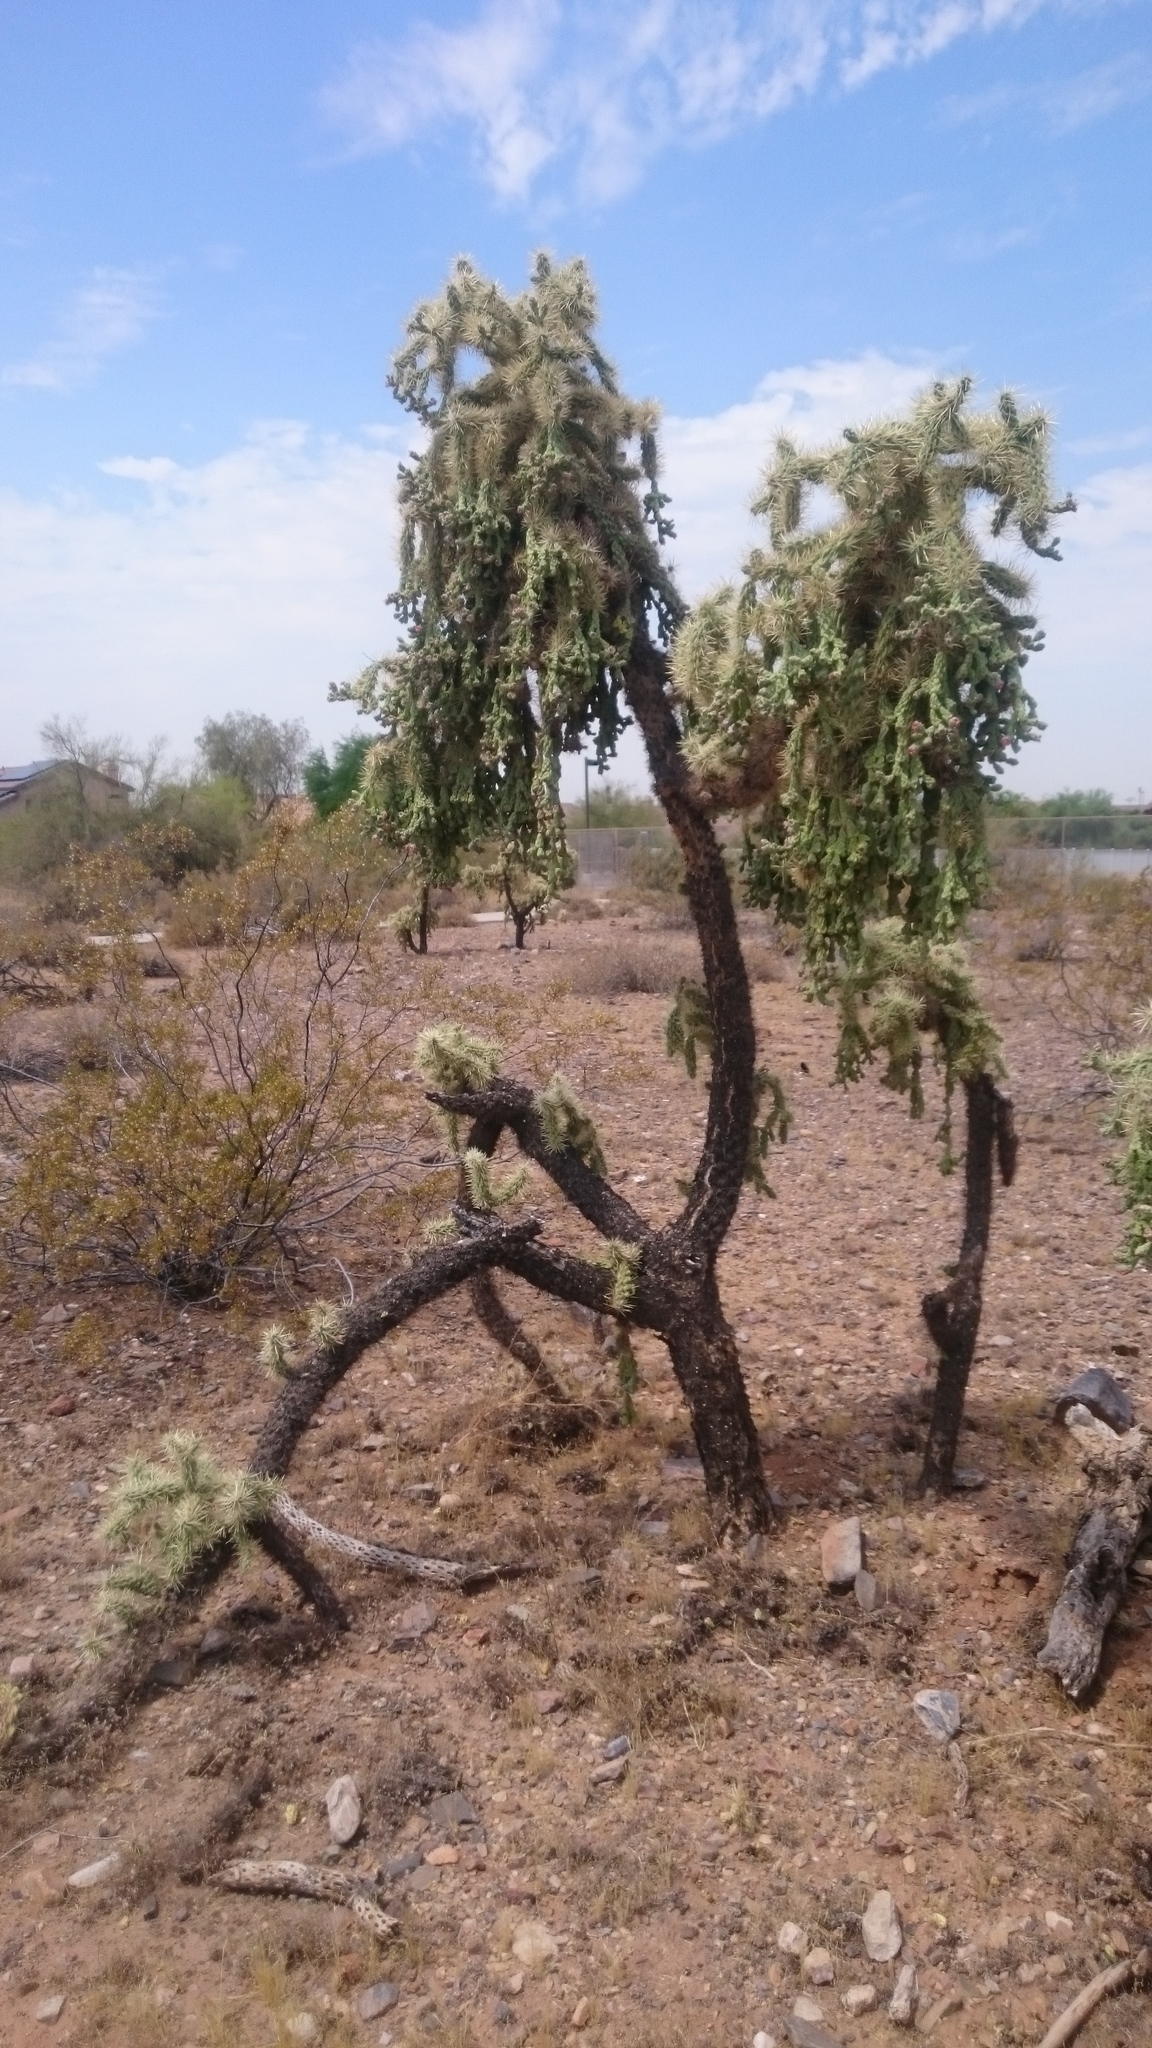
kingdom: Plantae
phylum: Tracheophyta
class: Magnoliopsida
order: Caryophyllales
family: Cactaceae
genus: Cylindropuntia
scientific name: Cylindropuntia fulgida
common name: Jumping cholla
